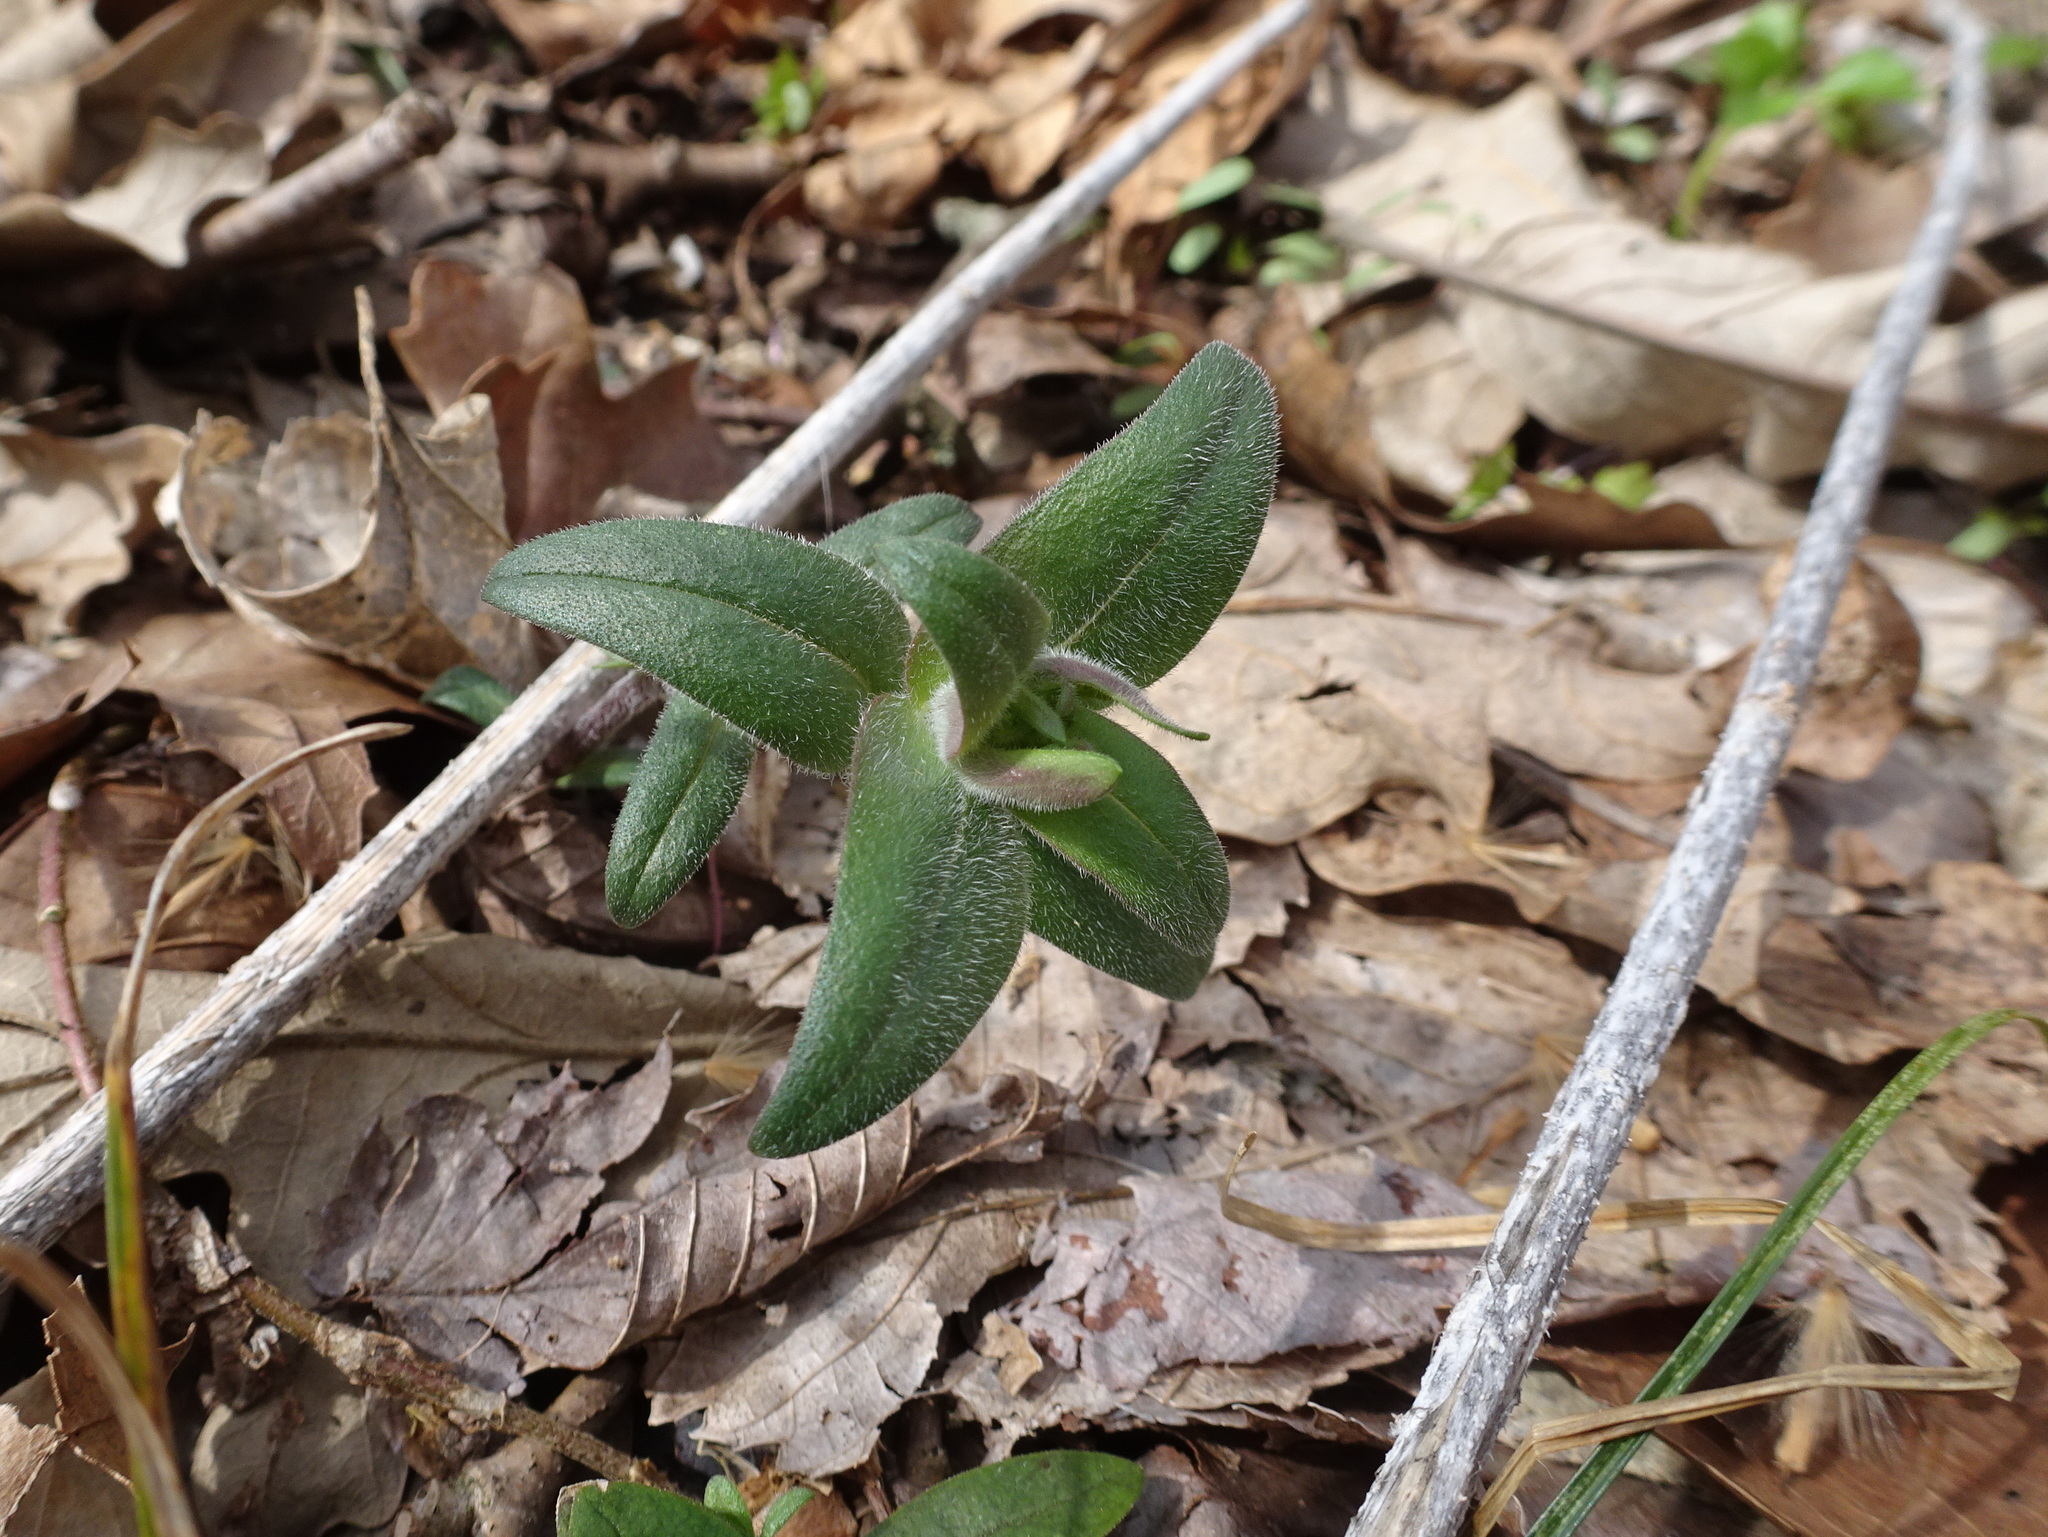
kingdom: Plantae
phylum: Tracheophyta
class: Magnoliopsida
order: Ericales
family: Polemoniaceae
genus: Phlox
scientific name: Phlox divaricata
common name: Blue phlox
